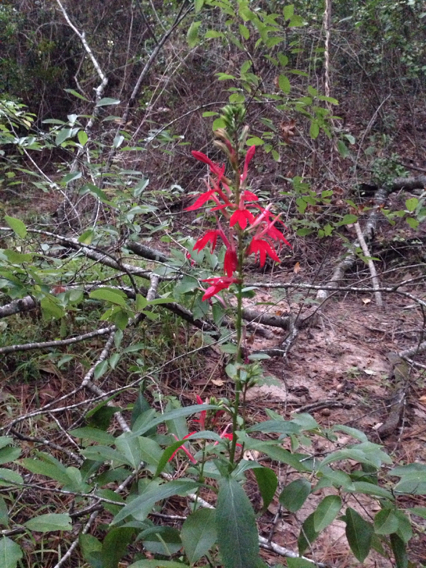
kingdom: Plantae
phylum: Tracheophyta
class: Magnoliopsida
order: Asterales
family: Campanulaceae
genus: Lobelia
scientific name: Lobelia cardinalis
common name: Cardinal flower
